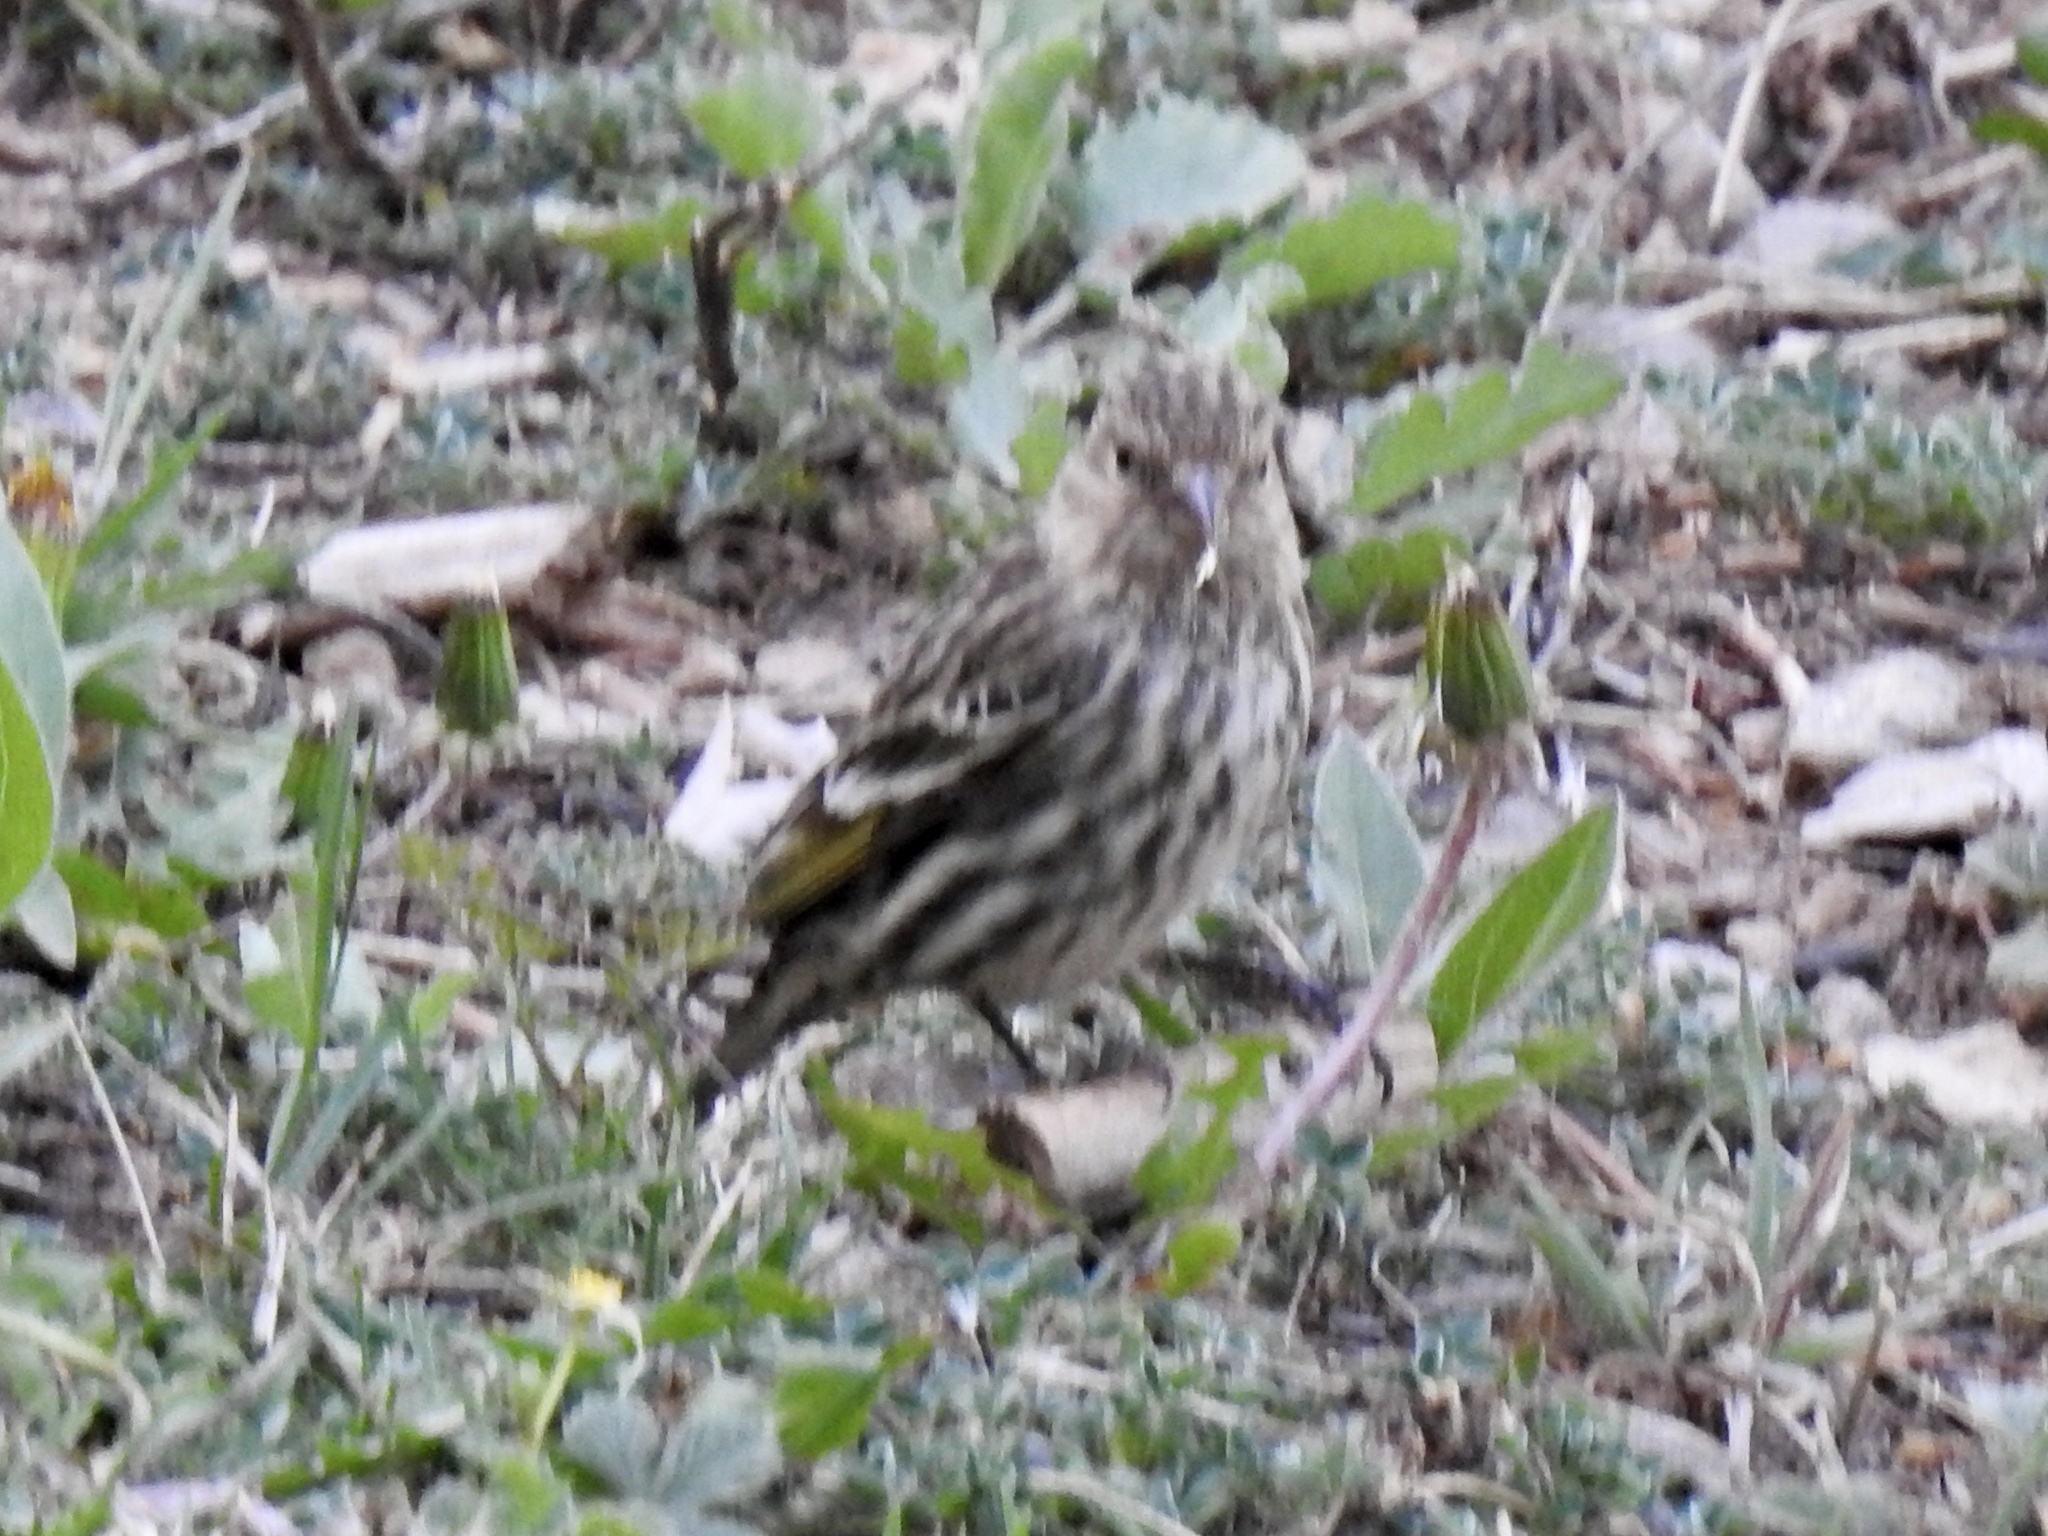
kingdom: Animalia
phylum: Chordata
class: Aves
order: Passeriformes
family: Fringillidae
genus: Spinus
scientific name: Spinus pinus
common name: Pine siskin
